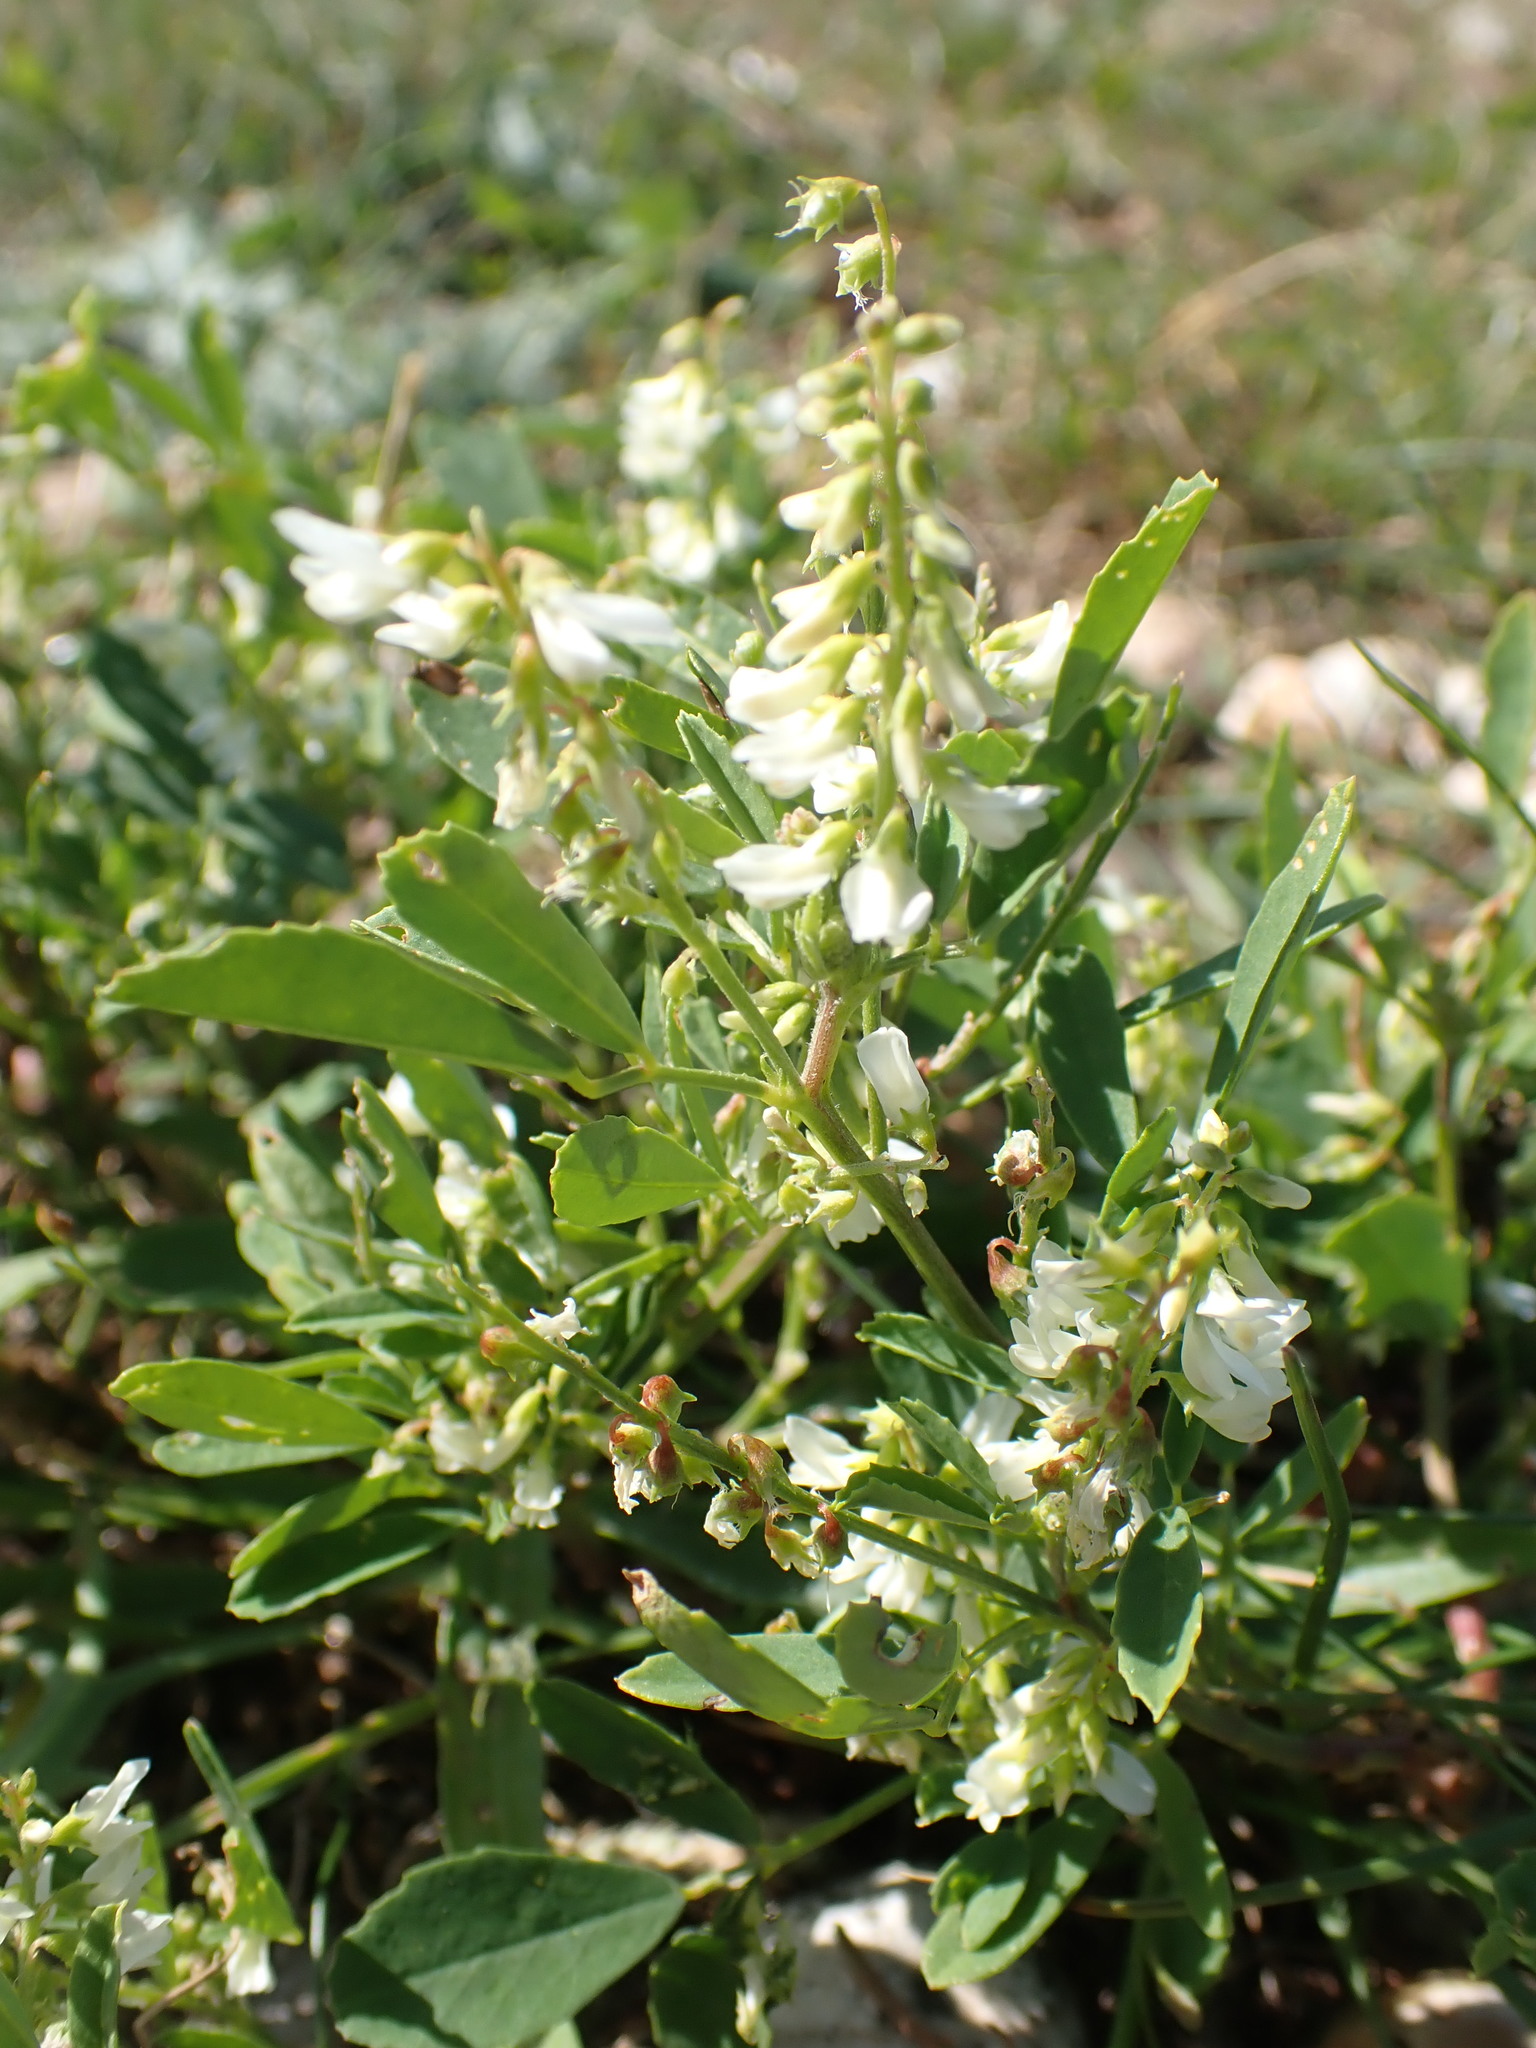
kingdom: Plantae
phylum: Tracheophyta
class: Magnoliopsida
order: Fabales
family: Fabaceae
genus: Melilotus
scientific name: Melilotus albus
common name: White melilot
